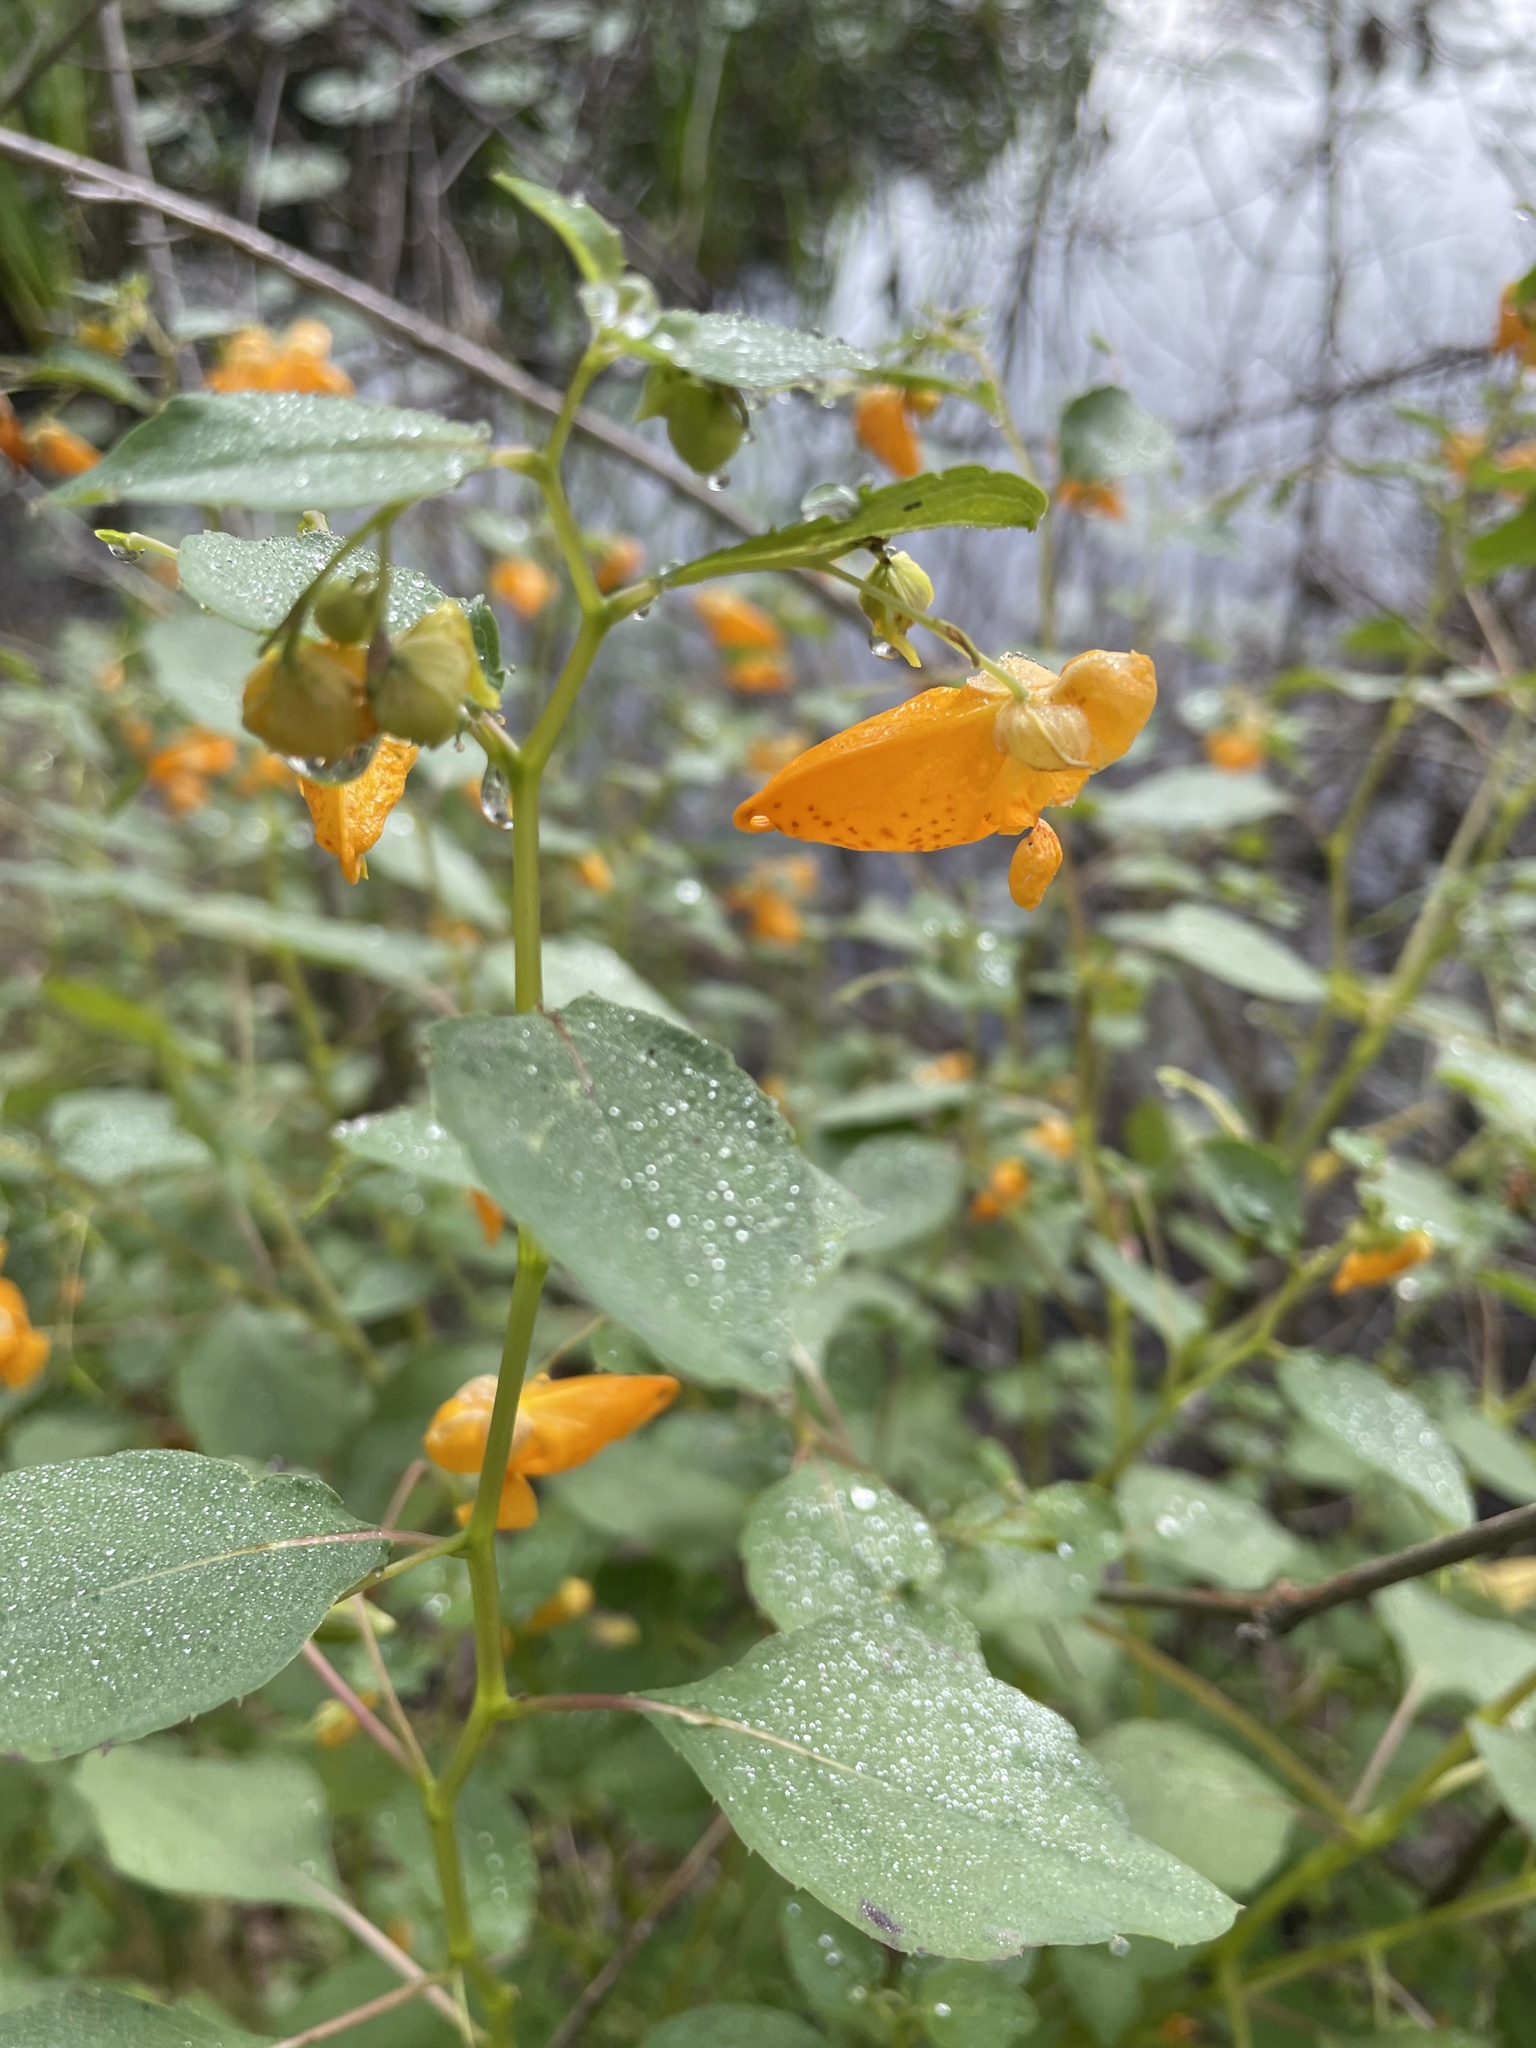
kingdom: Plantae
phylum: Tracheophyta
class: Magnoliopsida
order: Ericales
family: Balsaminaceae
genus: Impatiens
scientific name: Impatiens capensis
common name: Orange balsam
